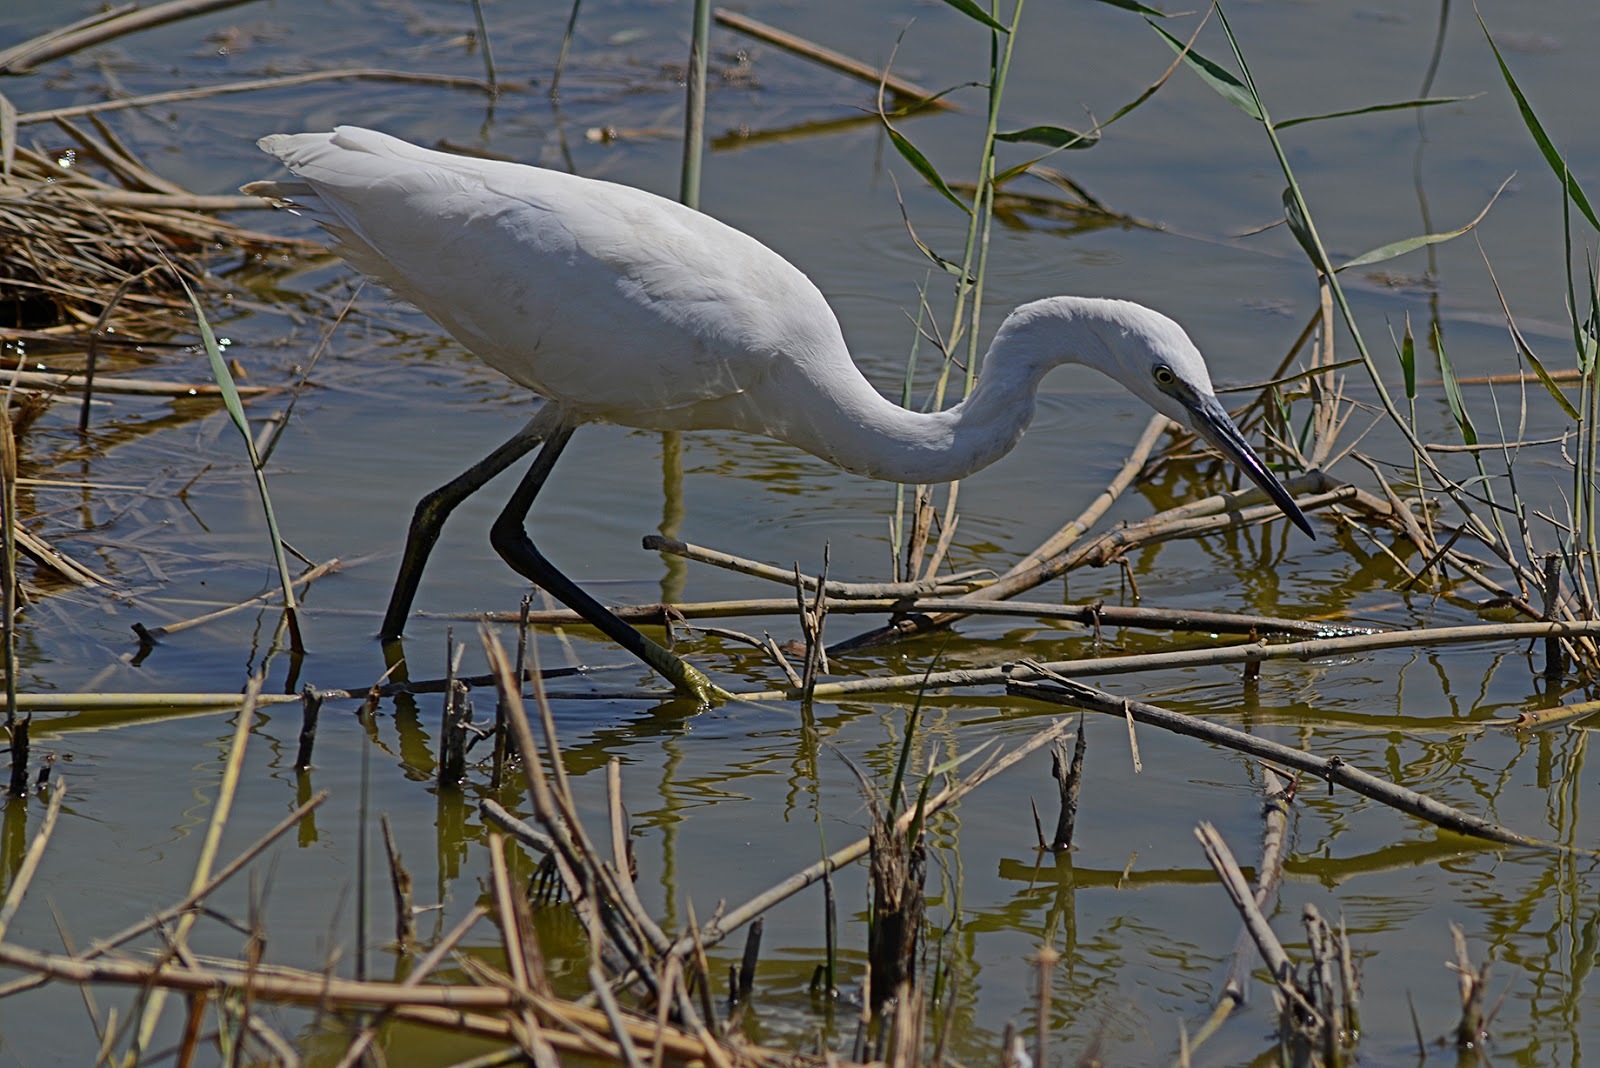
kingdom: Animalia
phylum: Chordata
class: Aves
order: Pelecaniformes
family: Ardeidae
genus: Egretta
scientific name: Egretta garzetta
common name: Little egret
